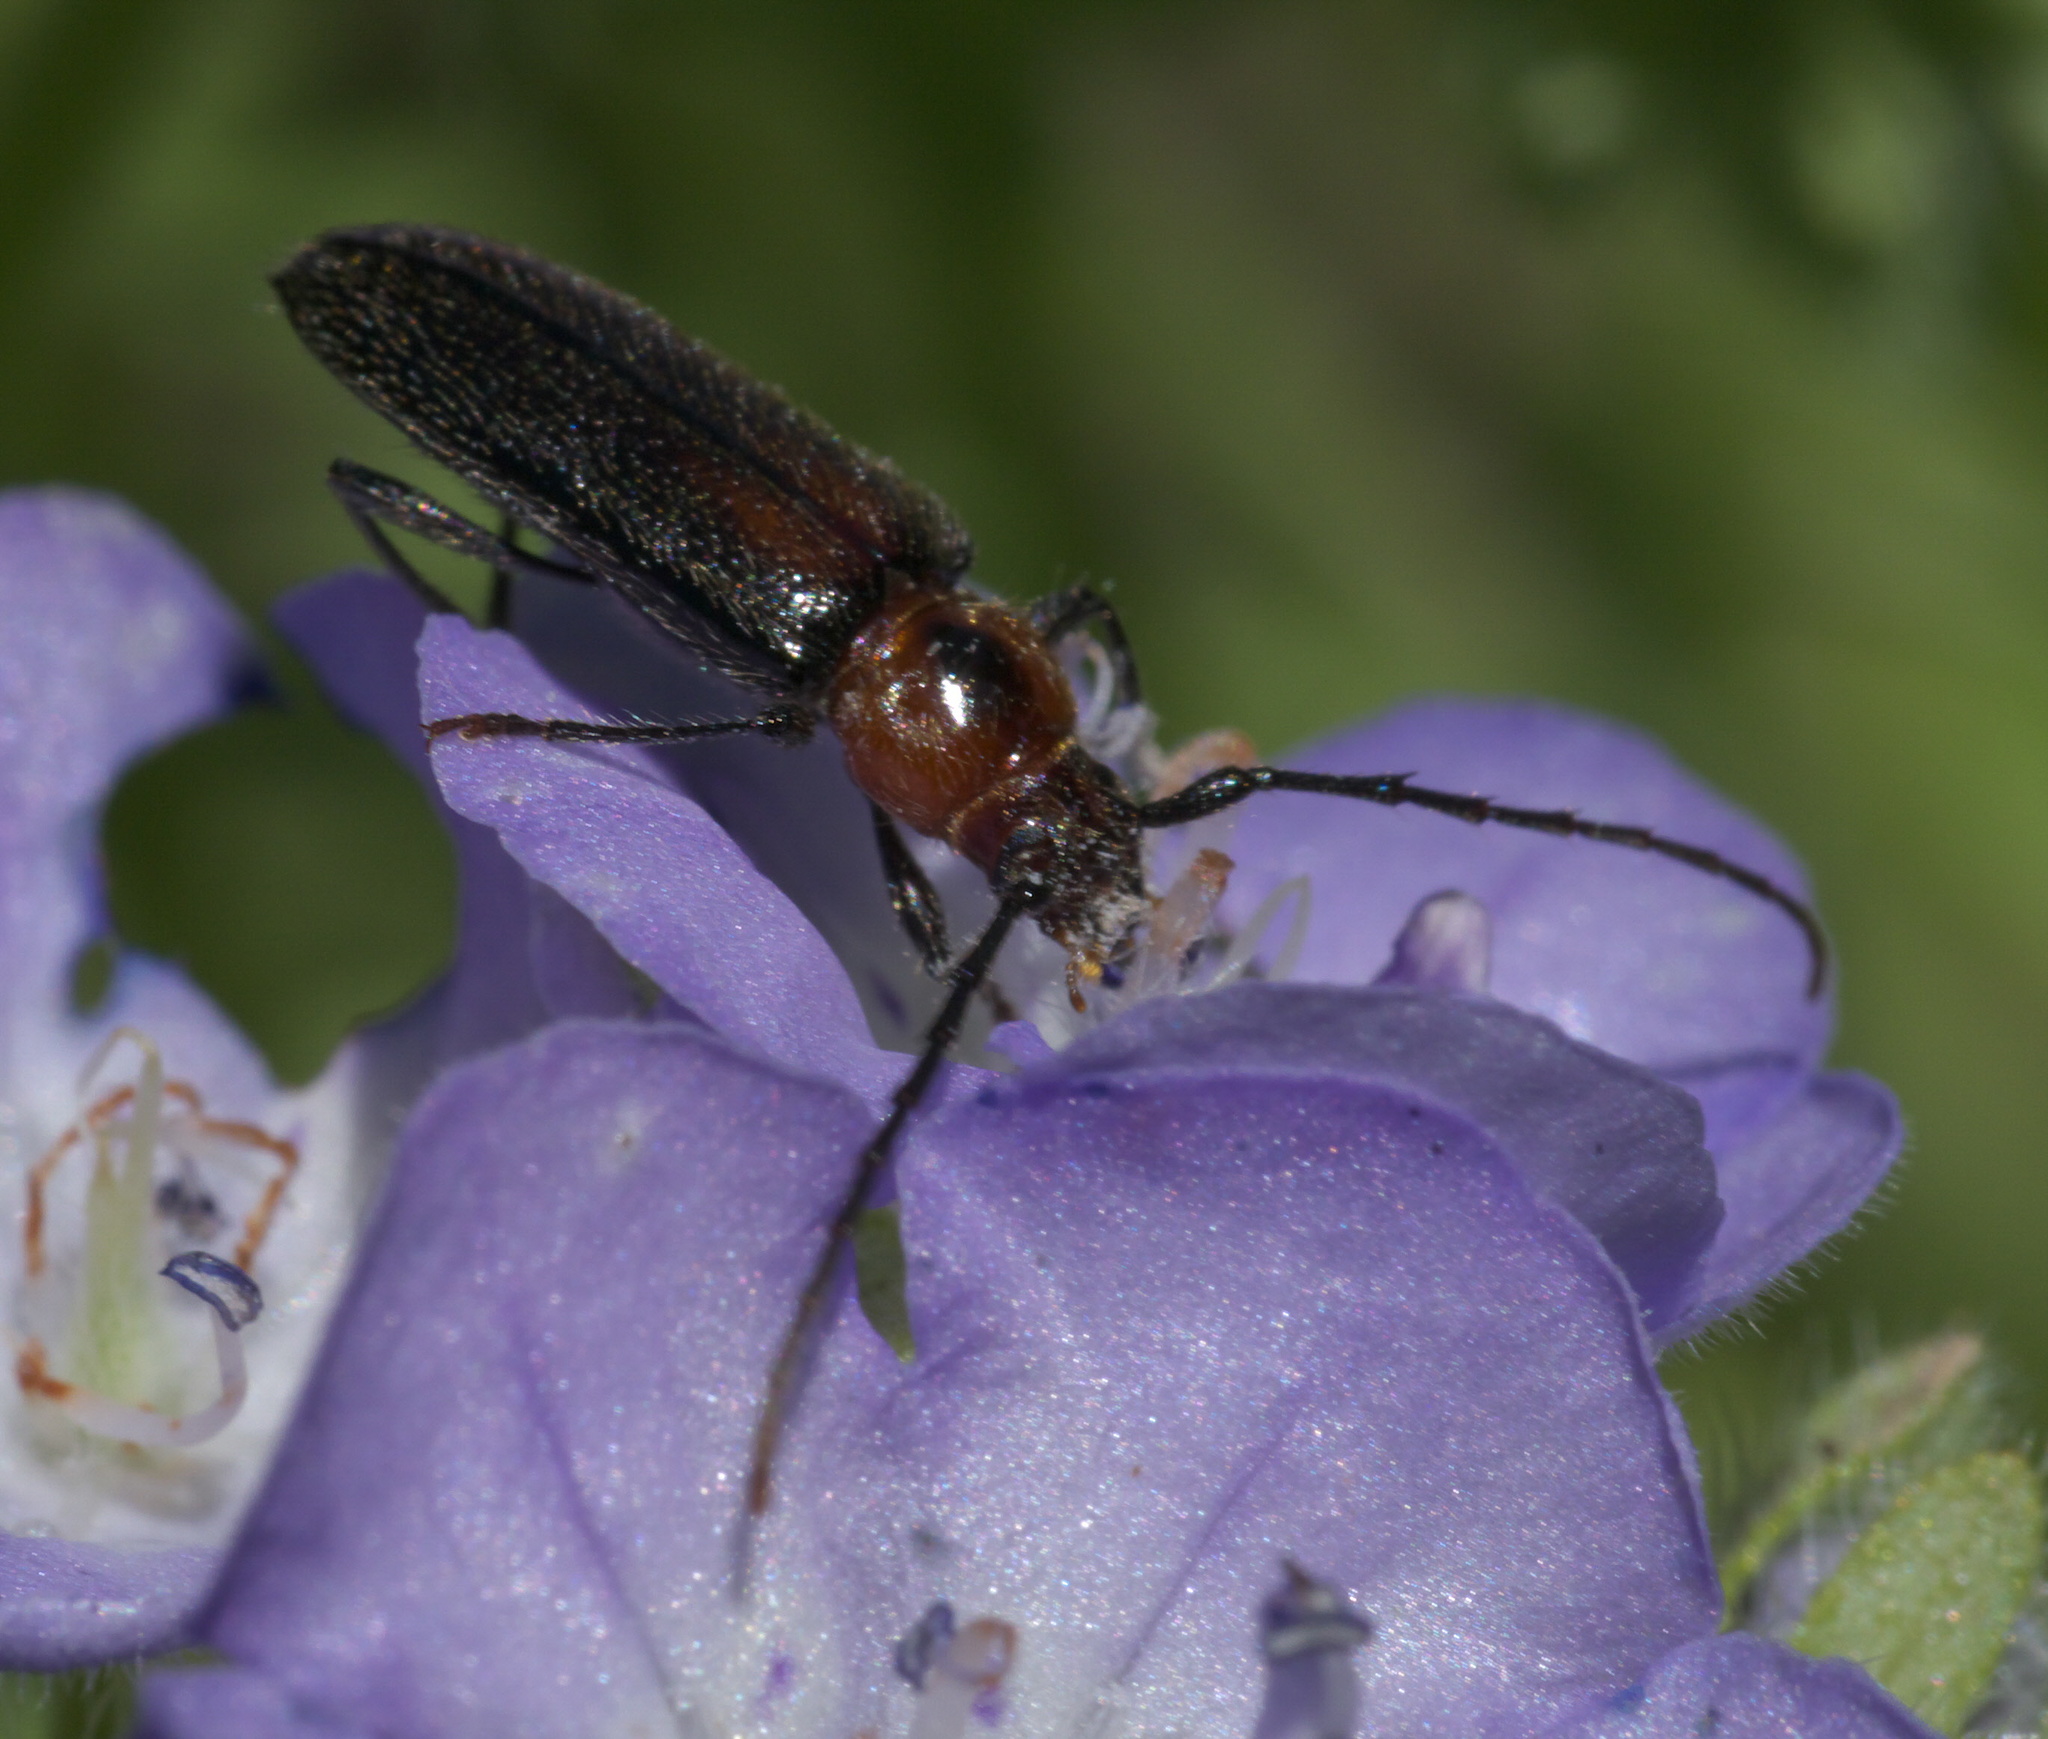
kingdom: Animalia
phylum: Arthropoda
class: Insecta
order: Coleoptera
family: Cerambycidae
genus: Stenosphenus
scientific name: Stenosphenus notatus
